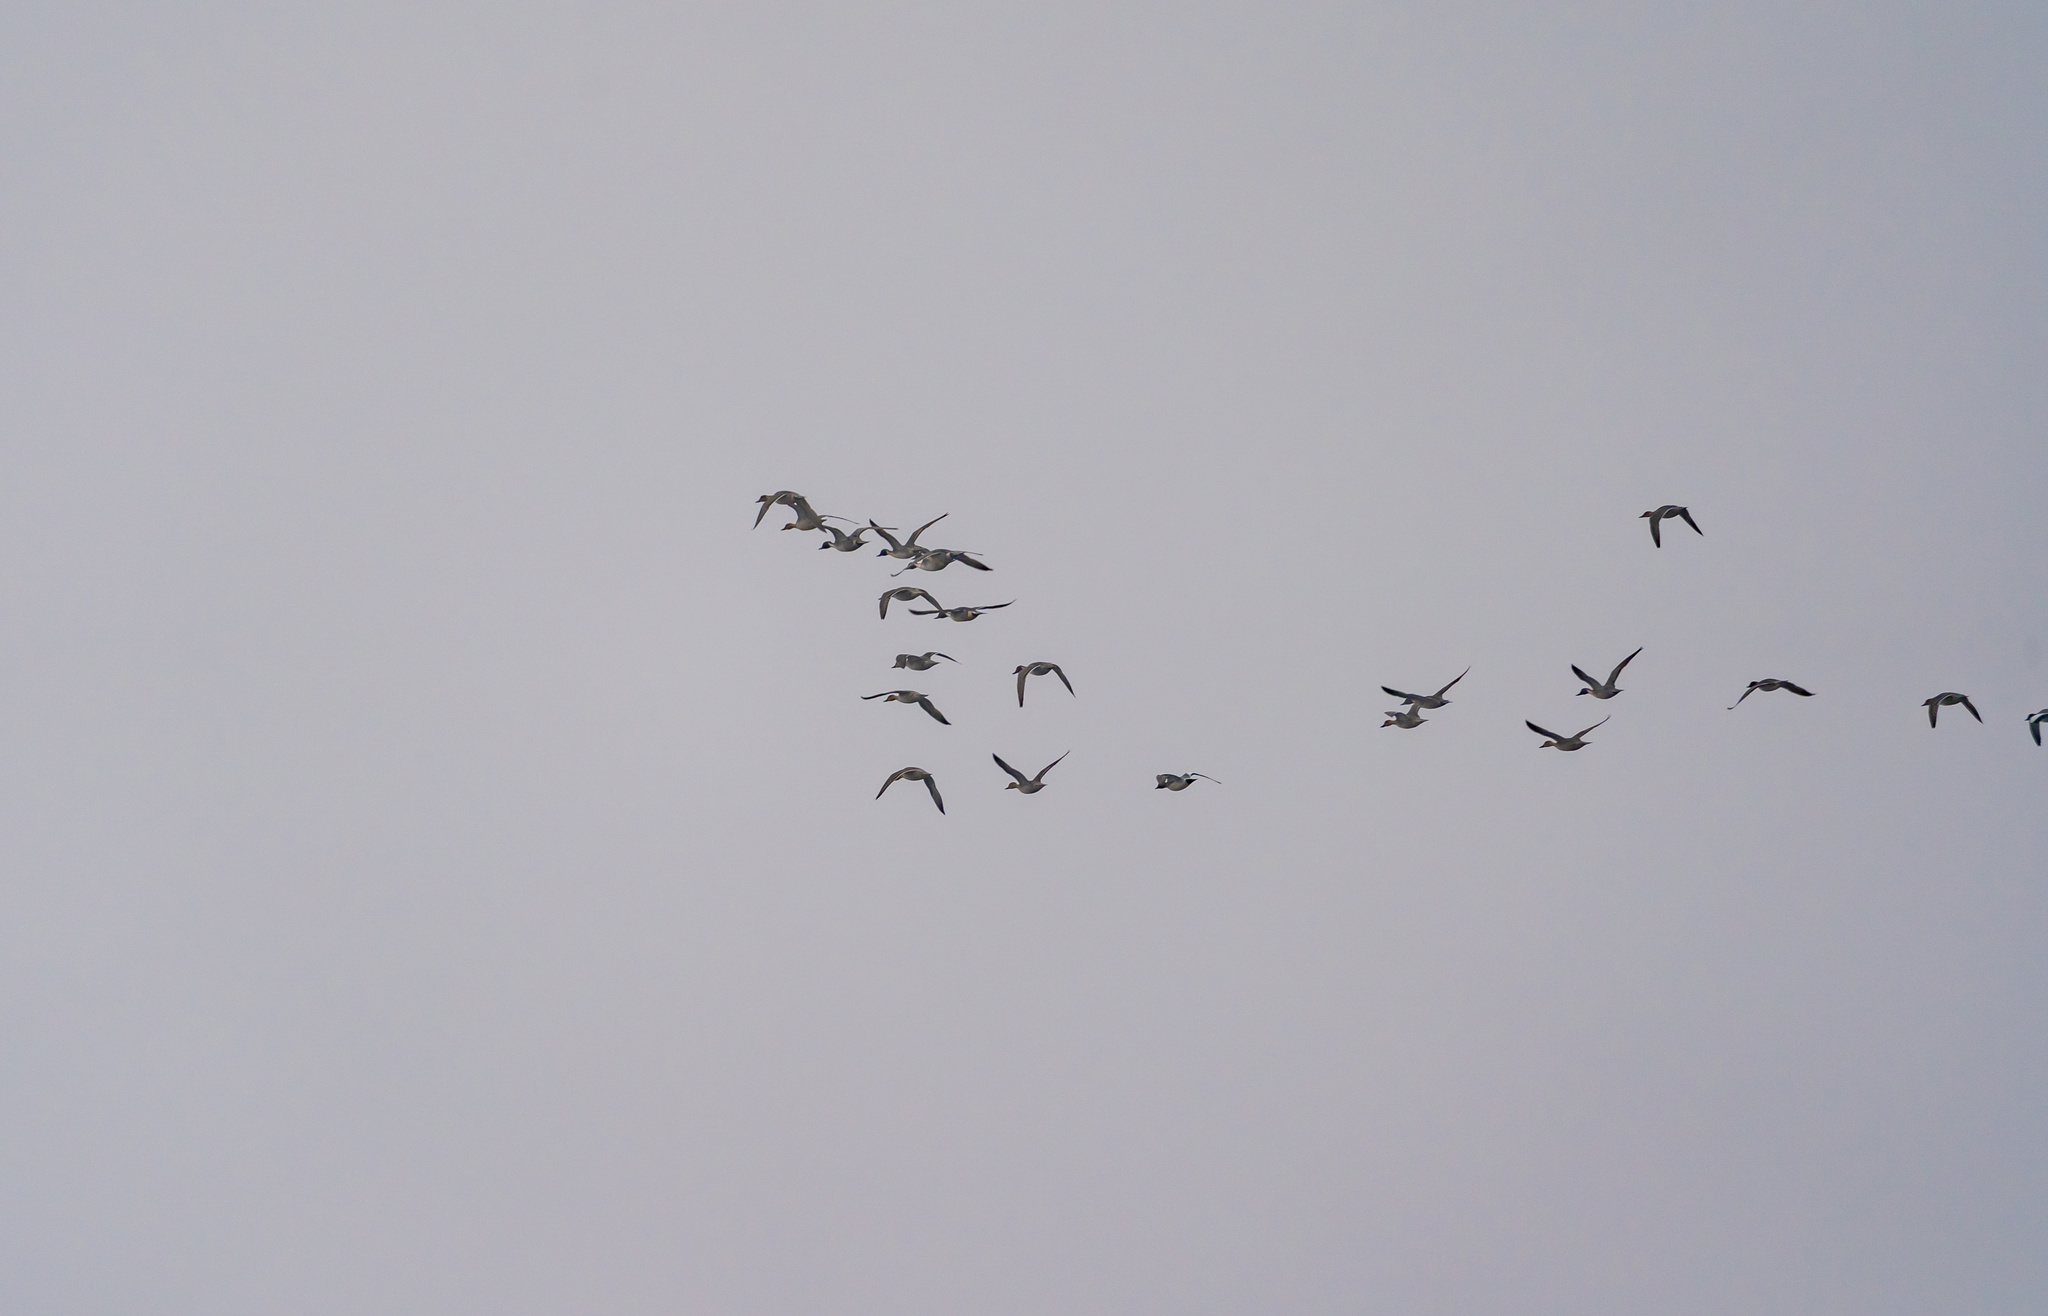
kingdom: Animalia
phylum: Chordata
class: Aves
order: Anseriformes
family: Anatidae
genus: Anas
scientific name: Anas acuta
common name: Northern pintail
